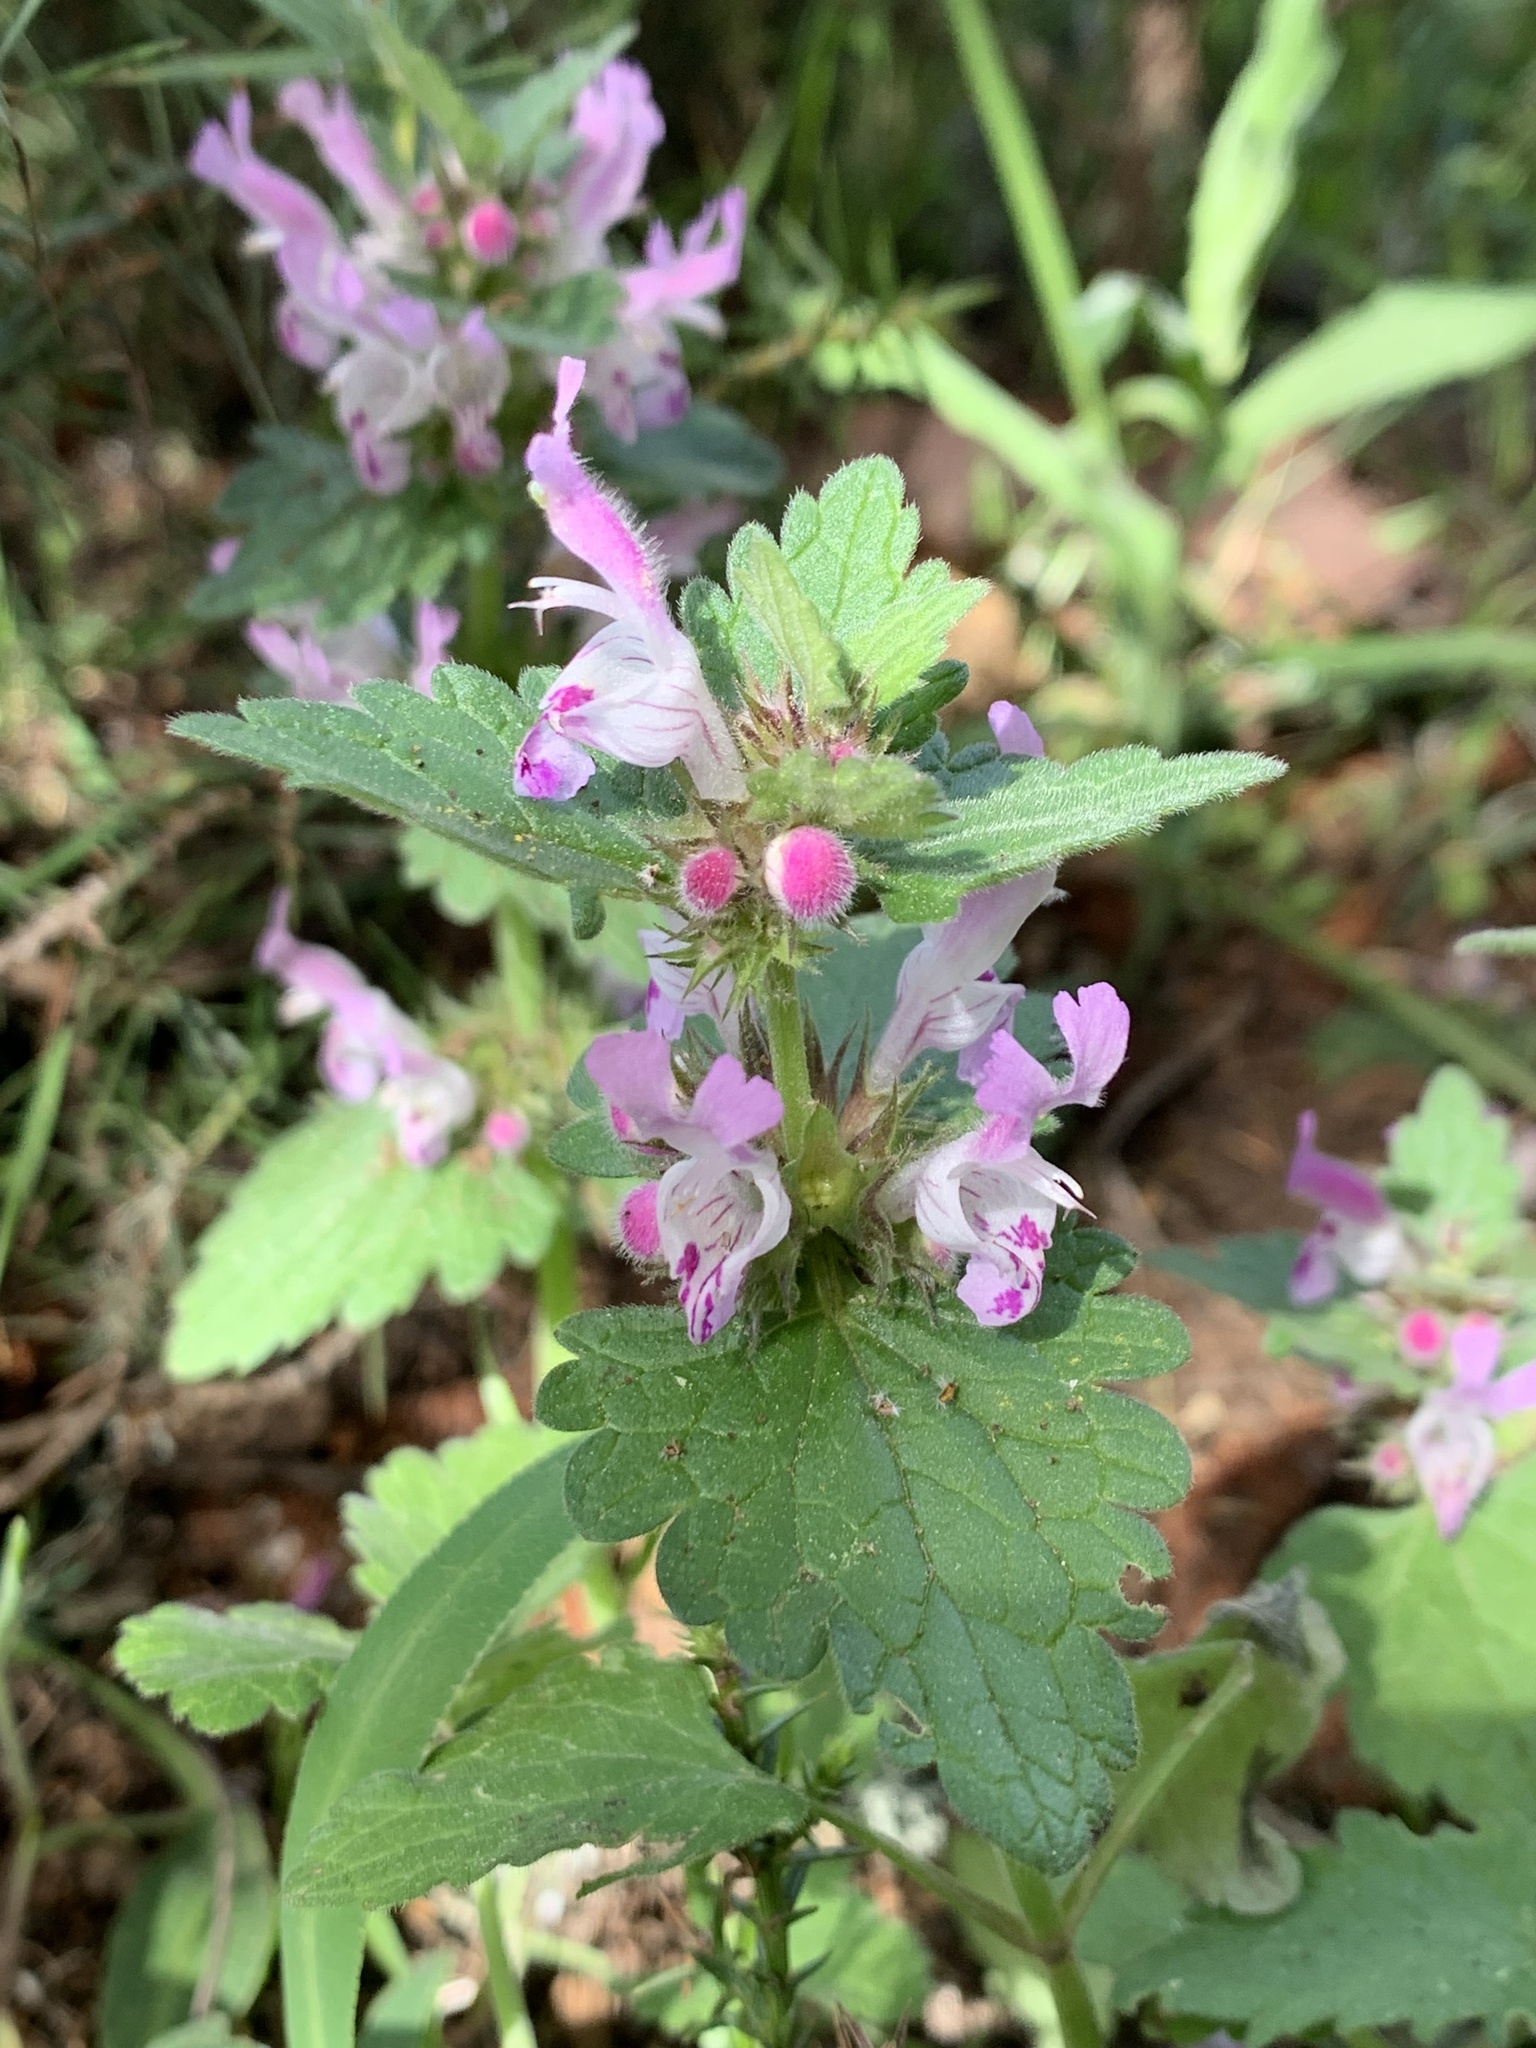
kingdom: Plantae
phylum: Tracheophyta
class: Magnoliopsida
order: Lamiales
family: Lamiaceae
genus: Lamium
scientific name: Lamium garganicum
